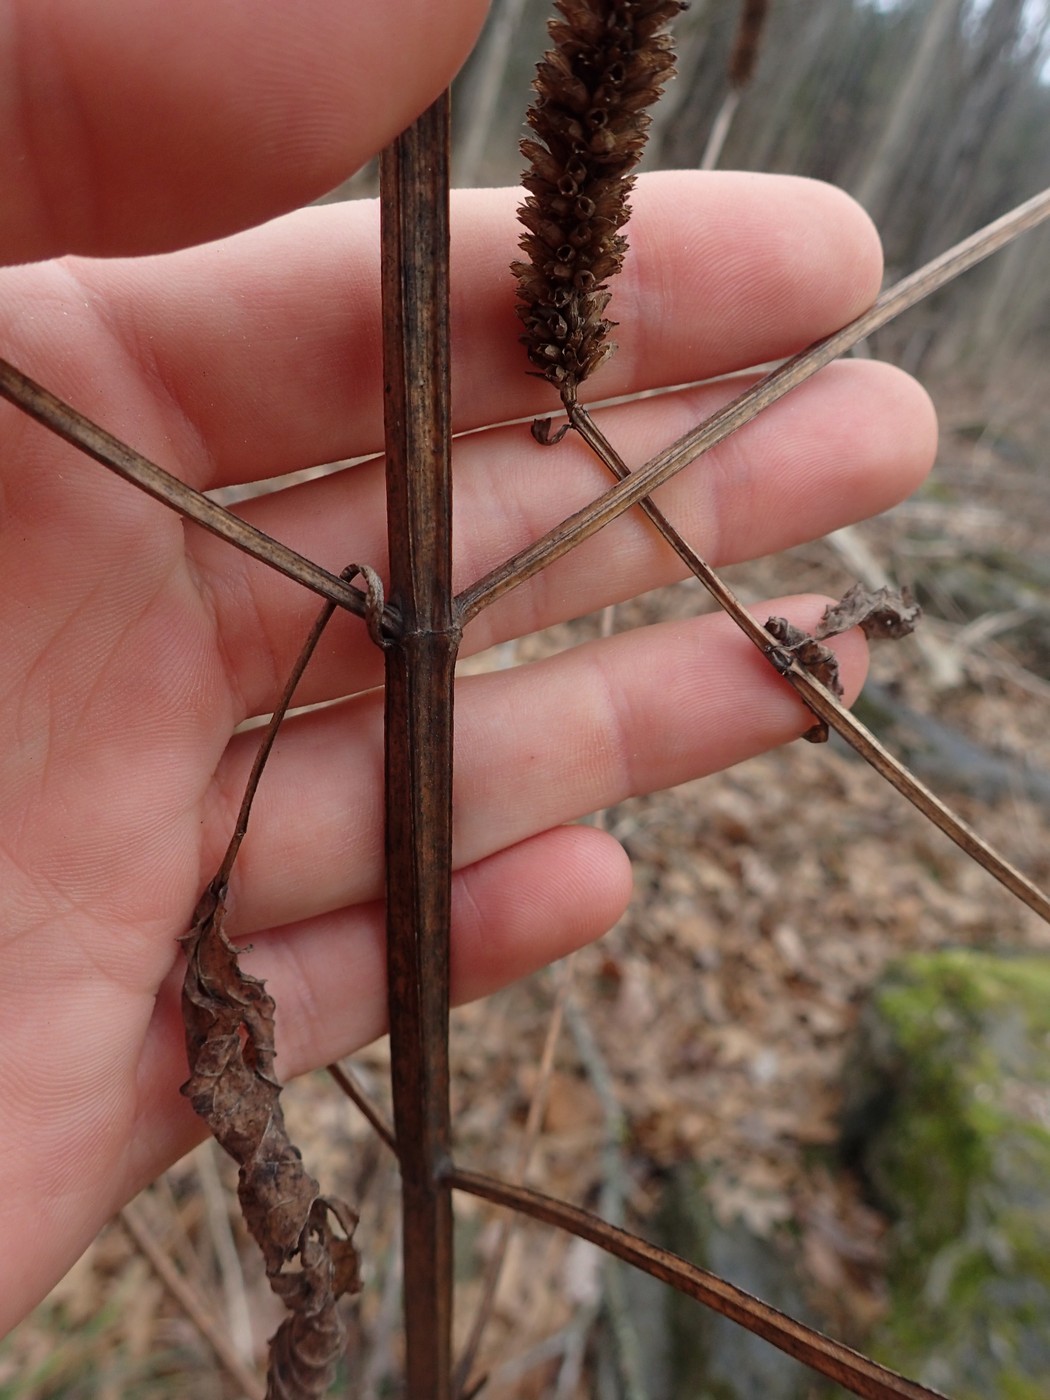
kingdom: Plantae
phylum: Tracheophyta
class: Magnoliopsida
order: Lamiales
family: Lamiaceae
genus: Agastache
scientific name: Agastache nepetoides
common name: Catnip giant hyssop
